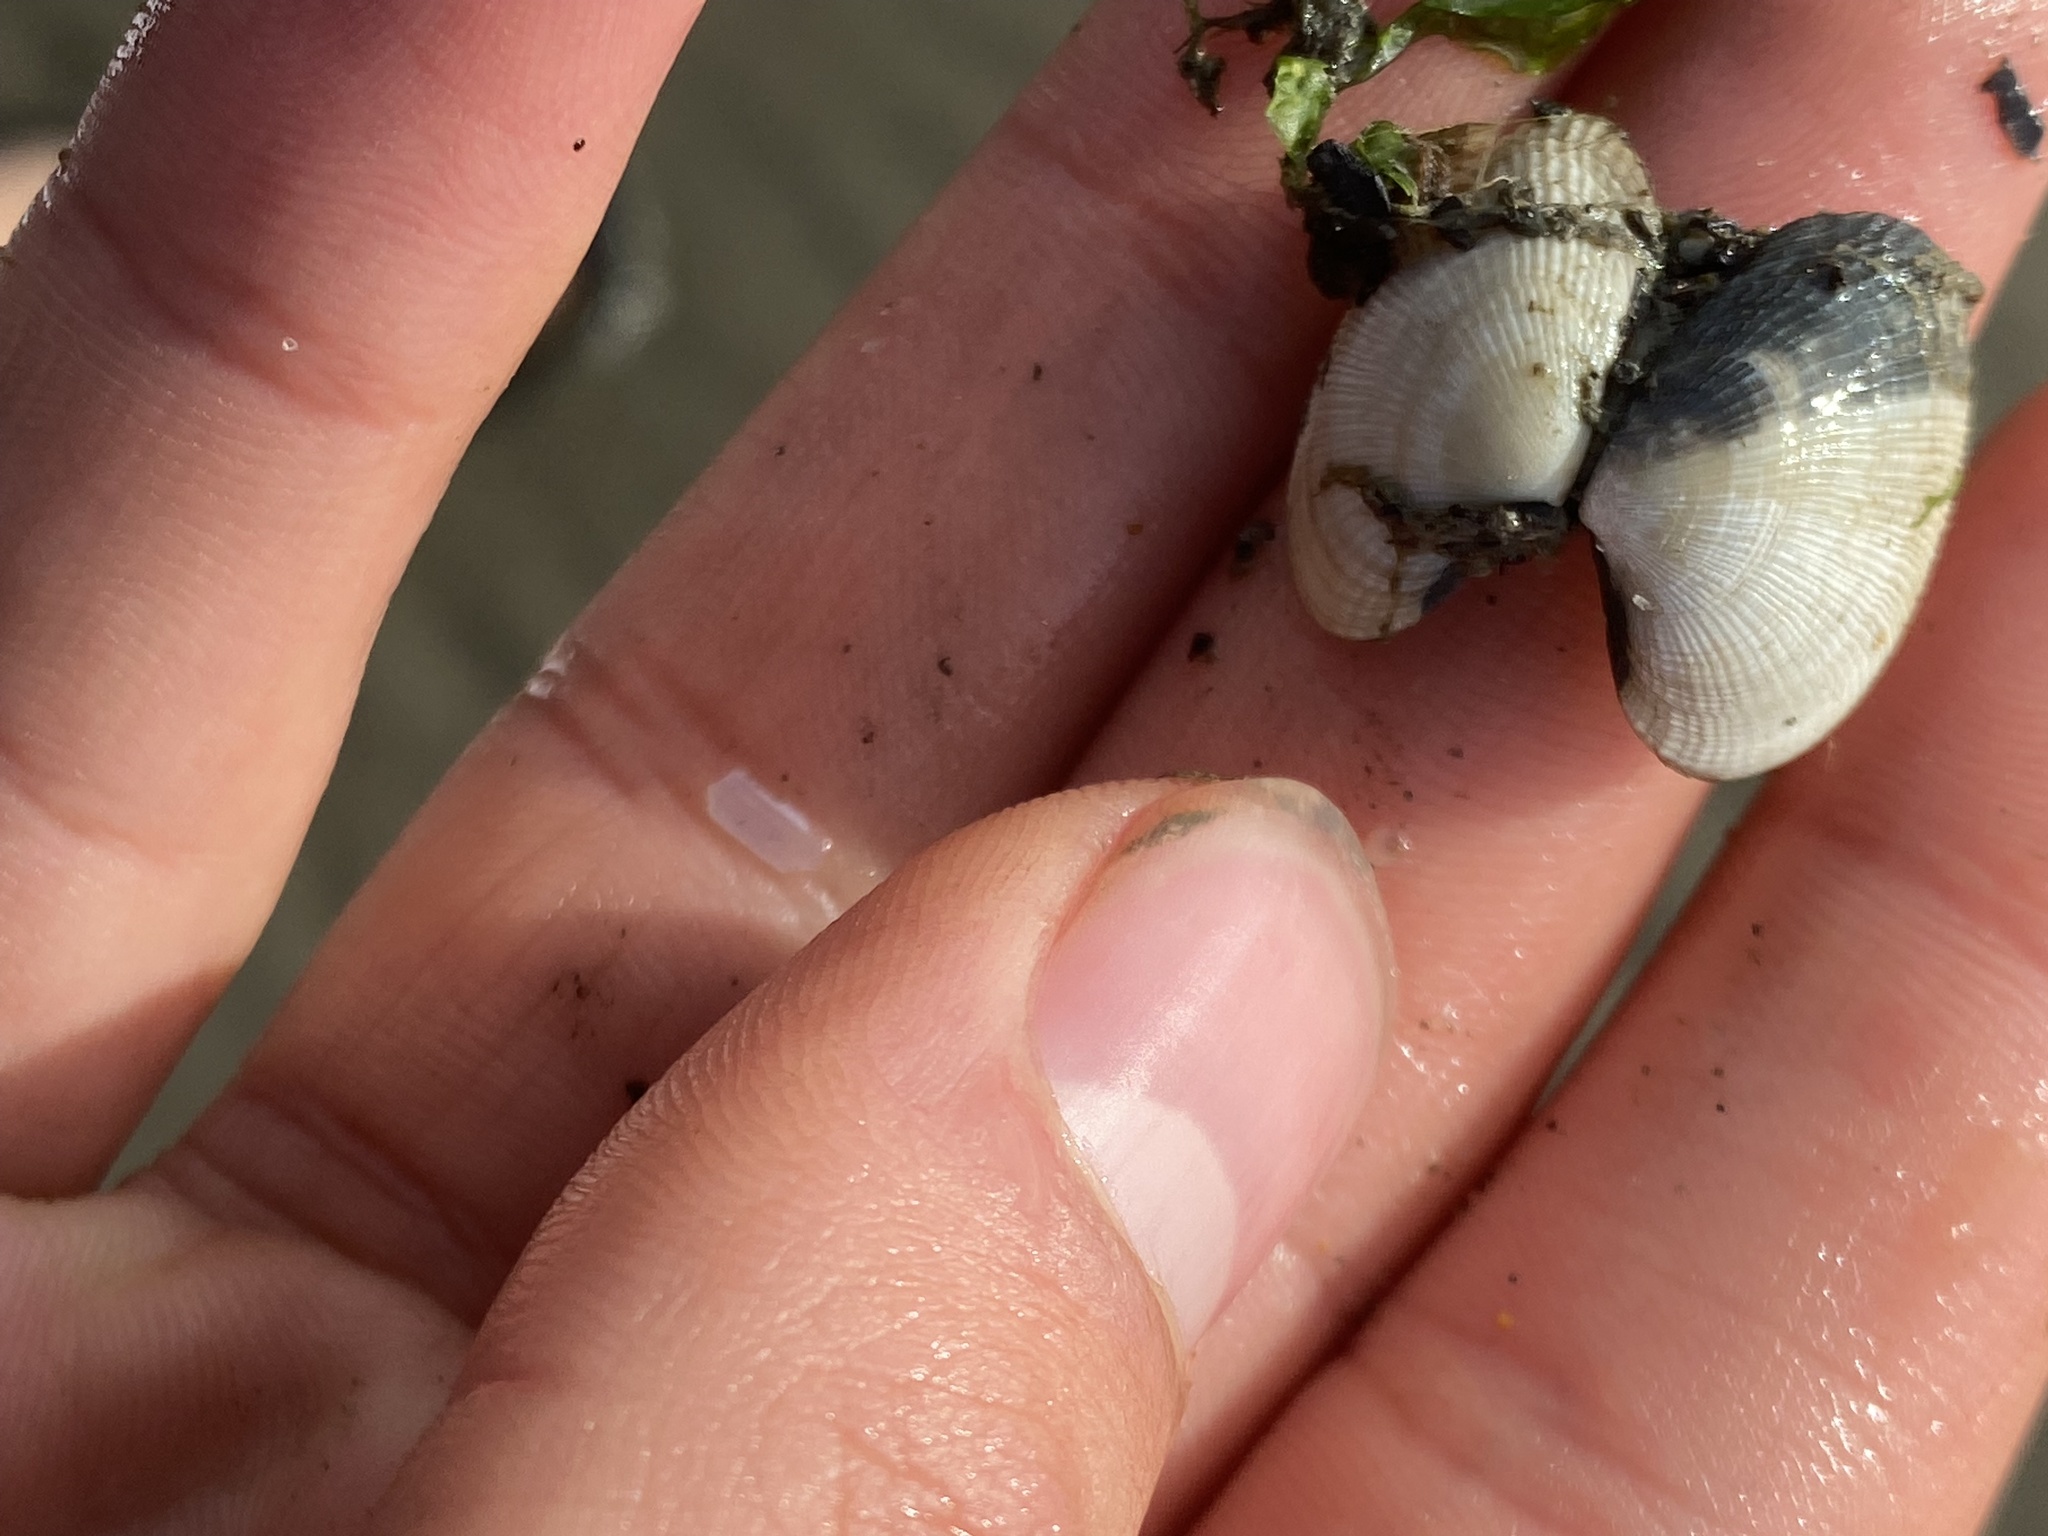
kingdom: Animalia
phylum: Mollusca
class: Bivalvia
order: Venerida
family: Veneridae
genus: Ruditapes
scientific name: Ruditapes philippinarum
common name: Manila clam
